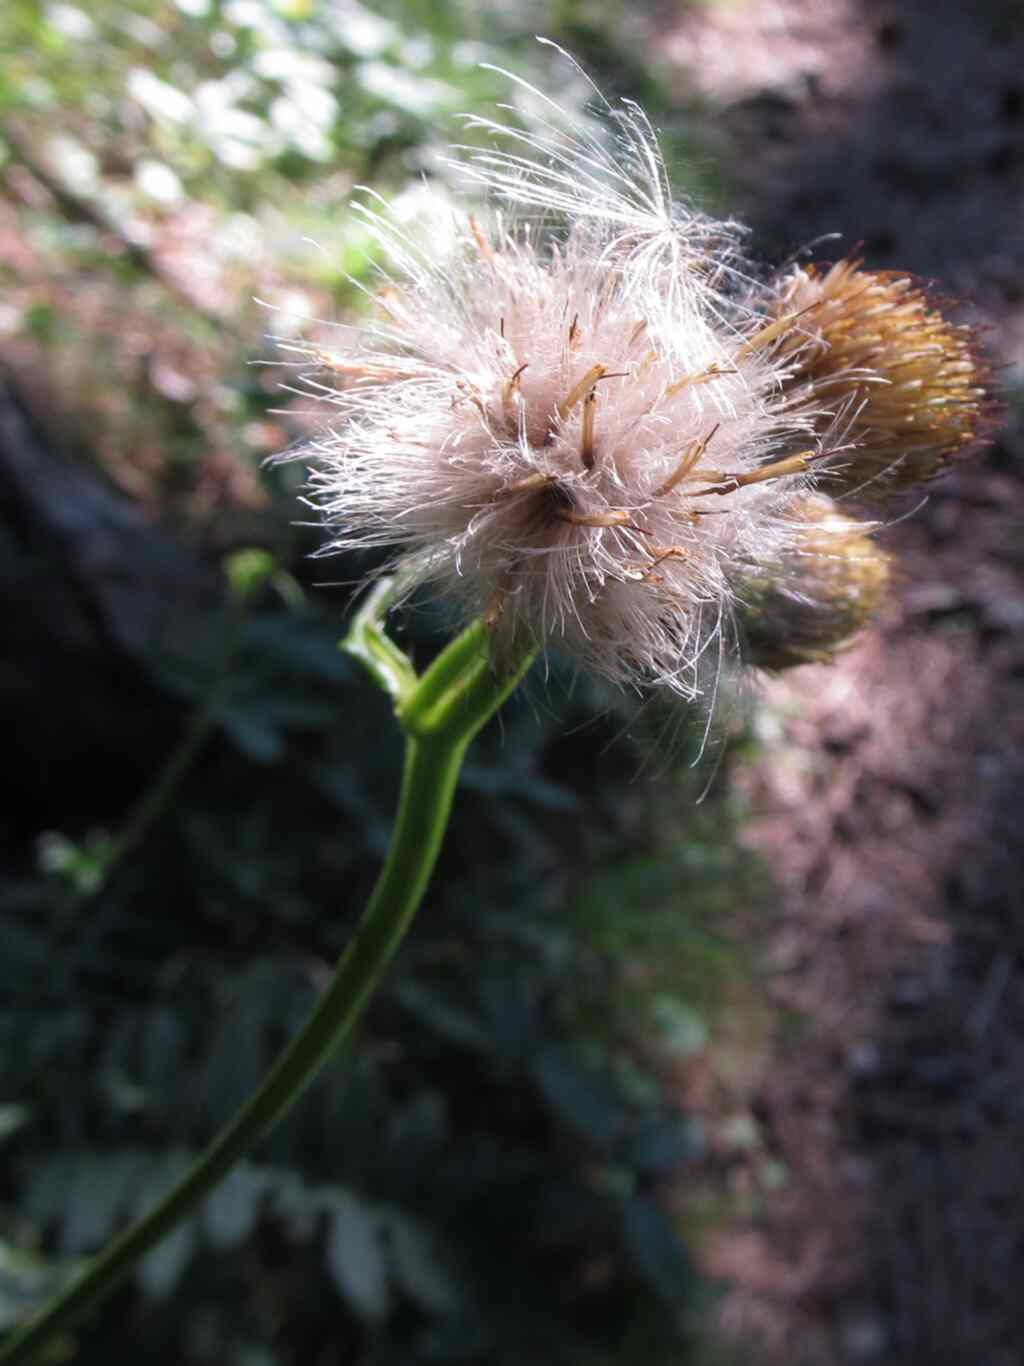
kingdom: Plantae
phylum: Tracheophyta
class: Magnoliopsida
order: Asterales
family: Asteraceae
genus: Cirsium
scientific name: Cirsium erisithales
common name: Yellow thistle
